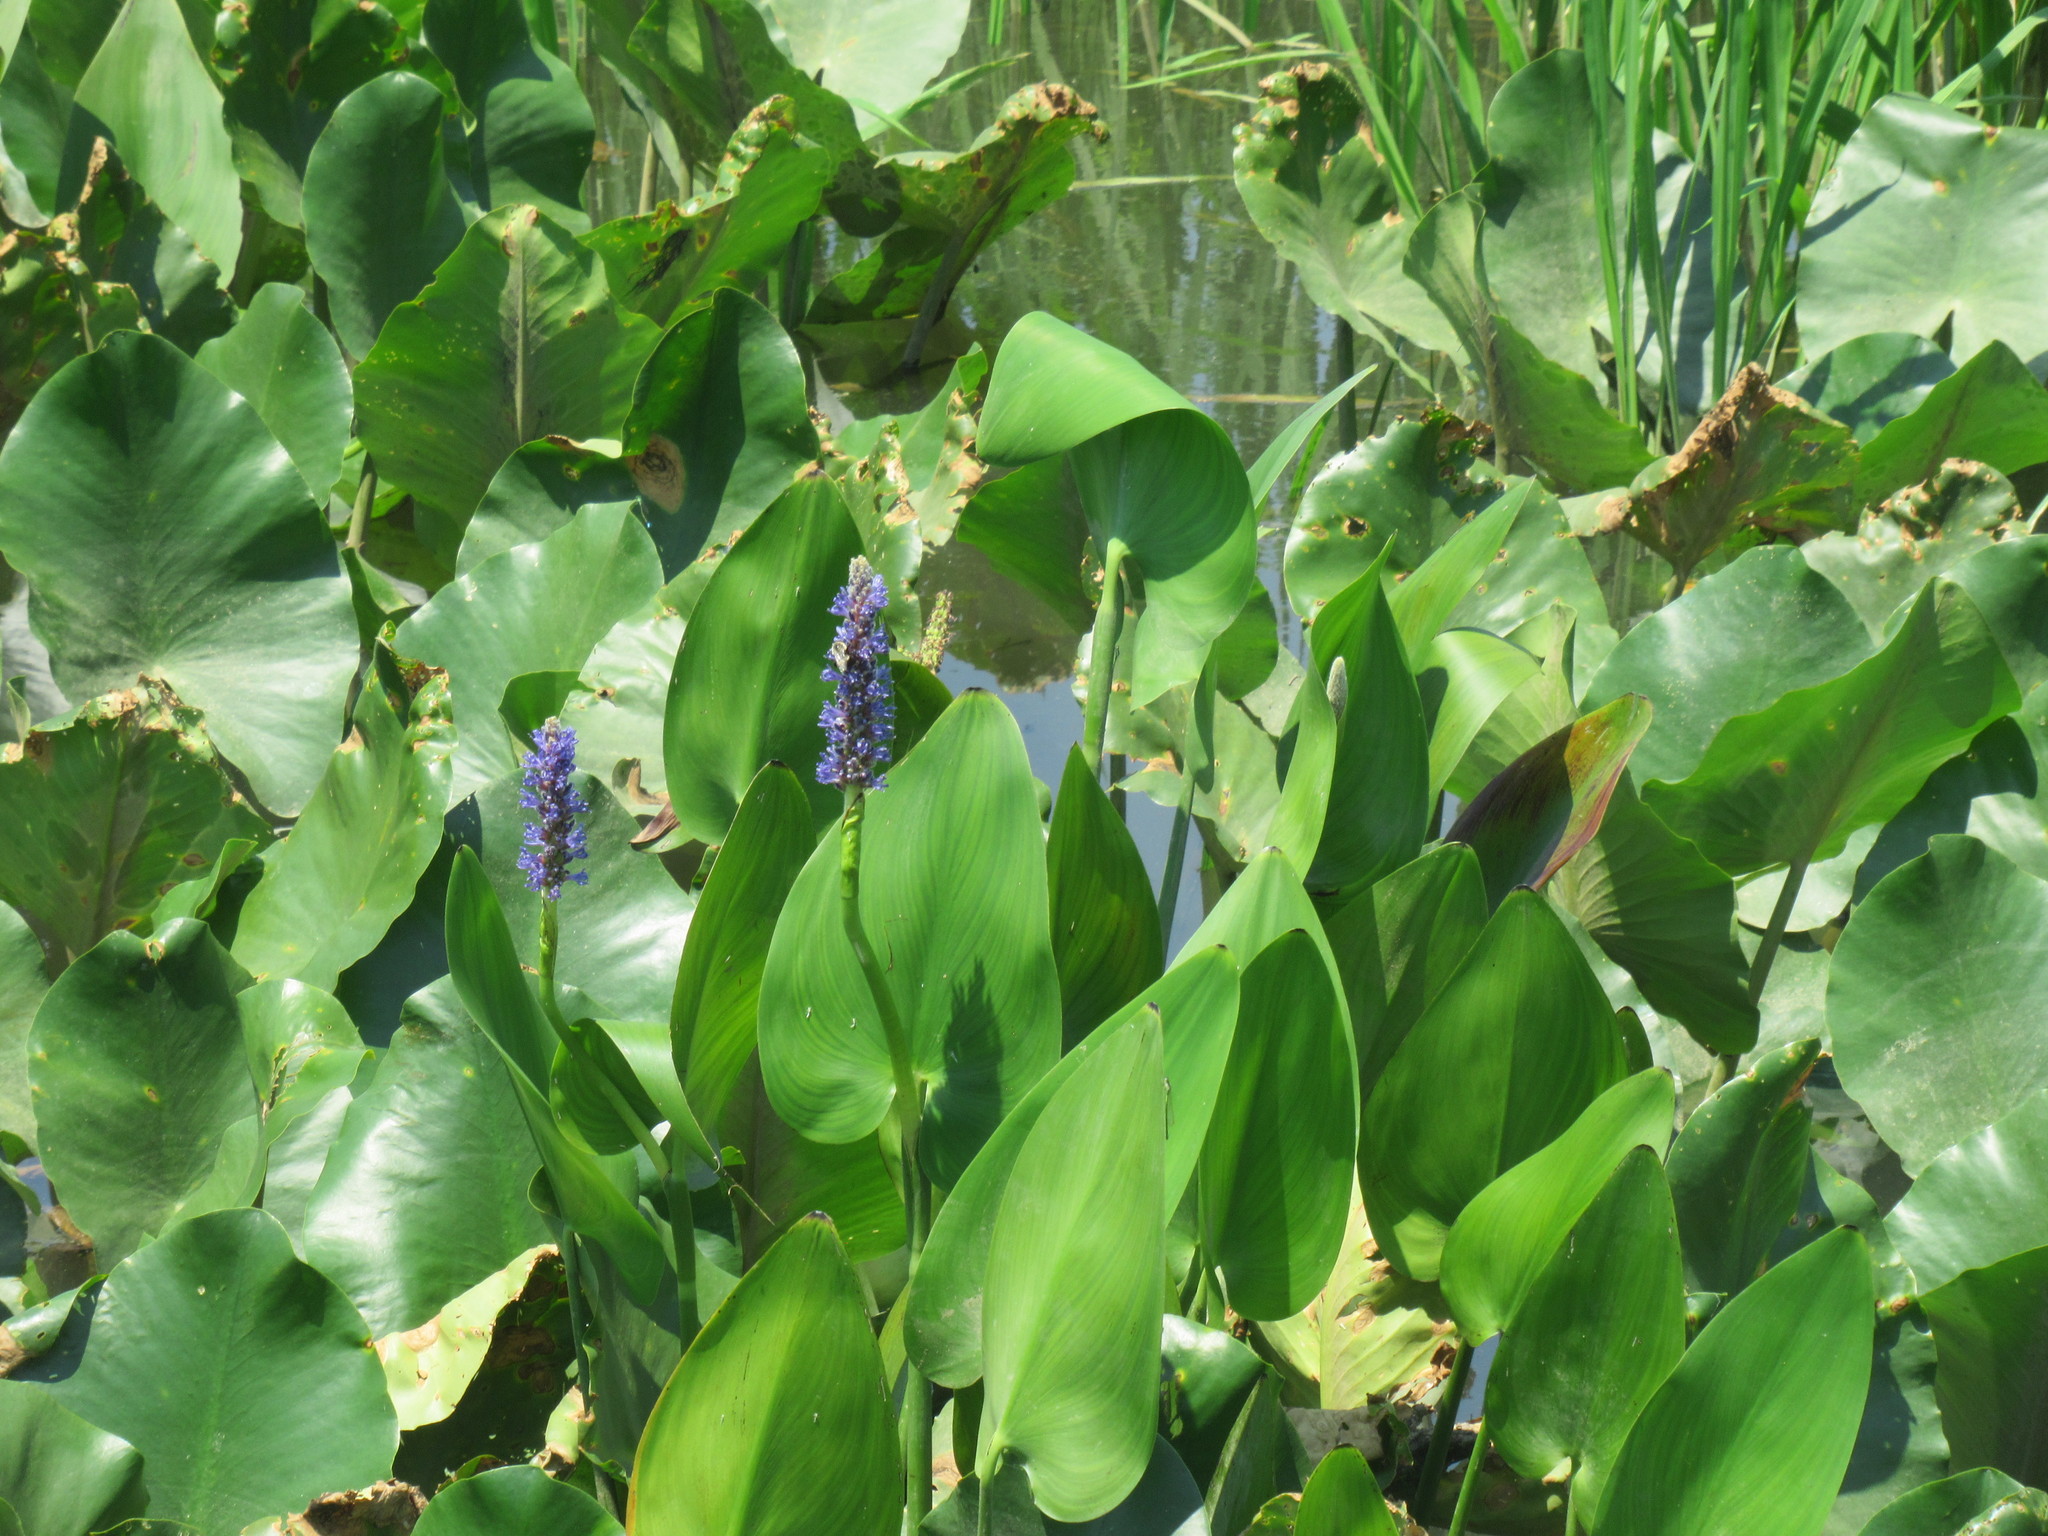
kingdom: Plantae
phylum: Tracheophyta
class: Liliopsida
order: Commelinales
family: Pontederiaceae
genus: Pontederia
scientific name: Pontederia cordata
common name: Pickerelweed
